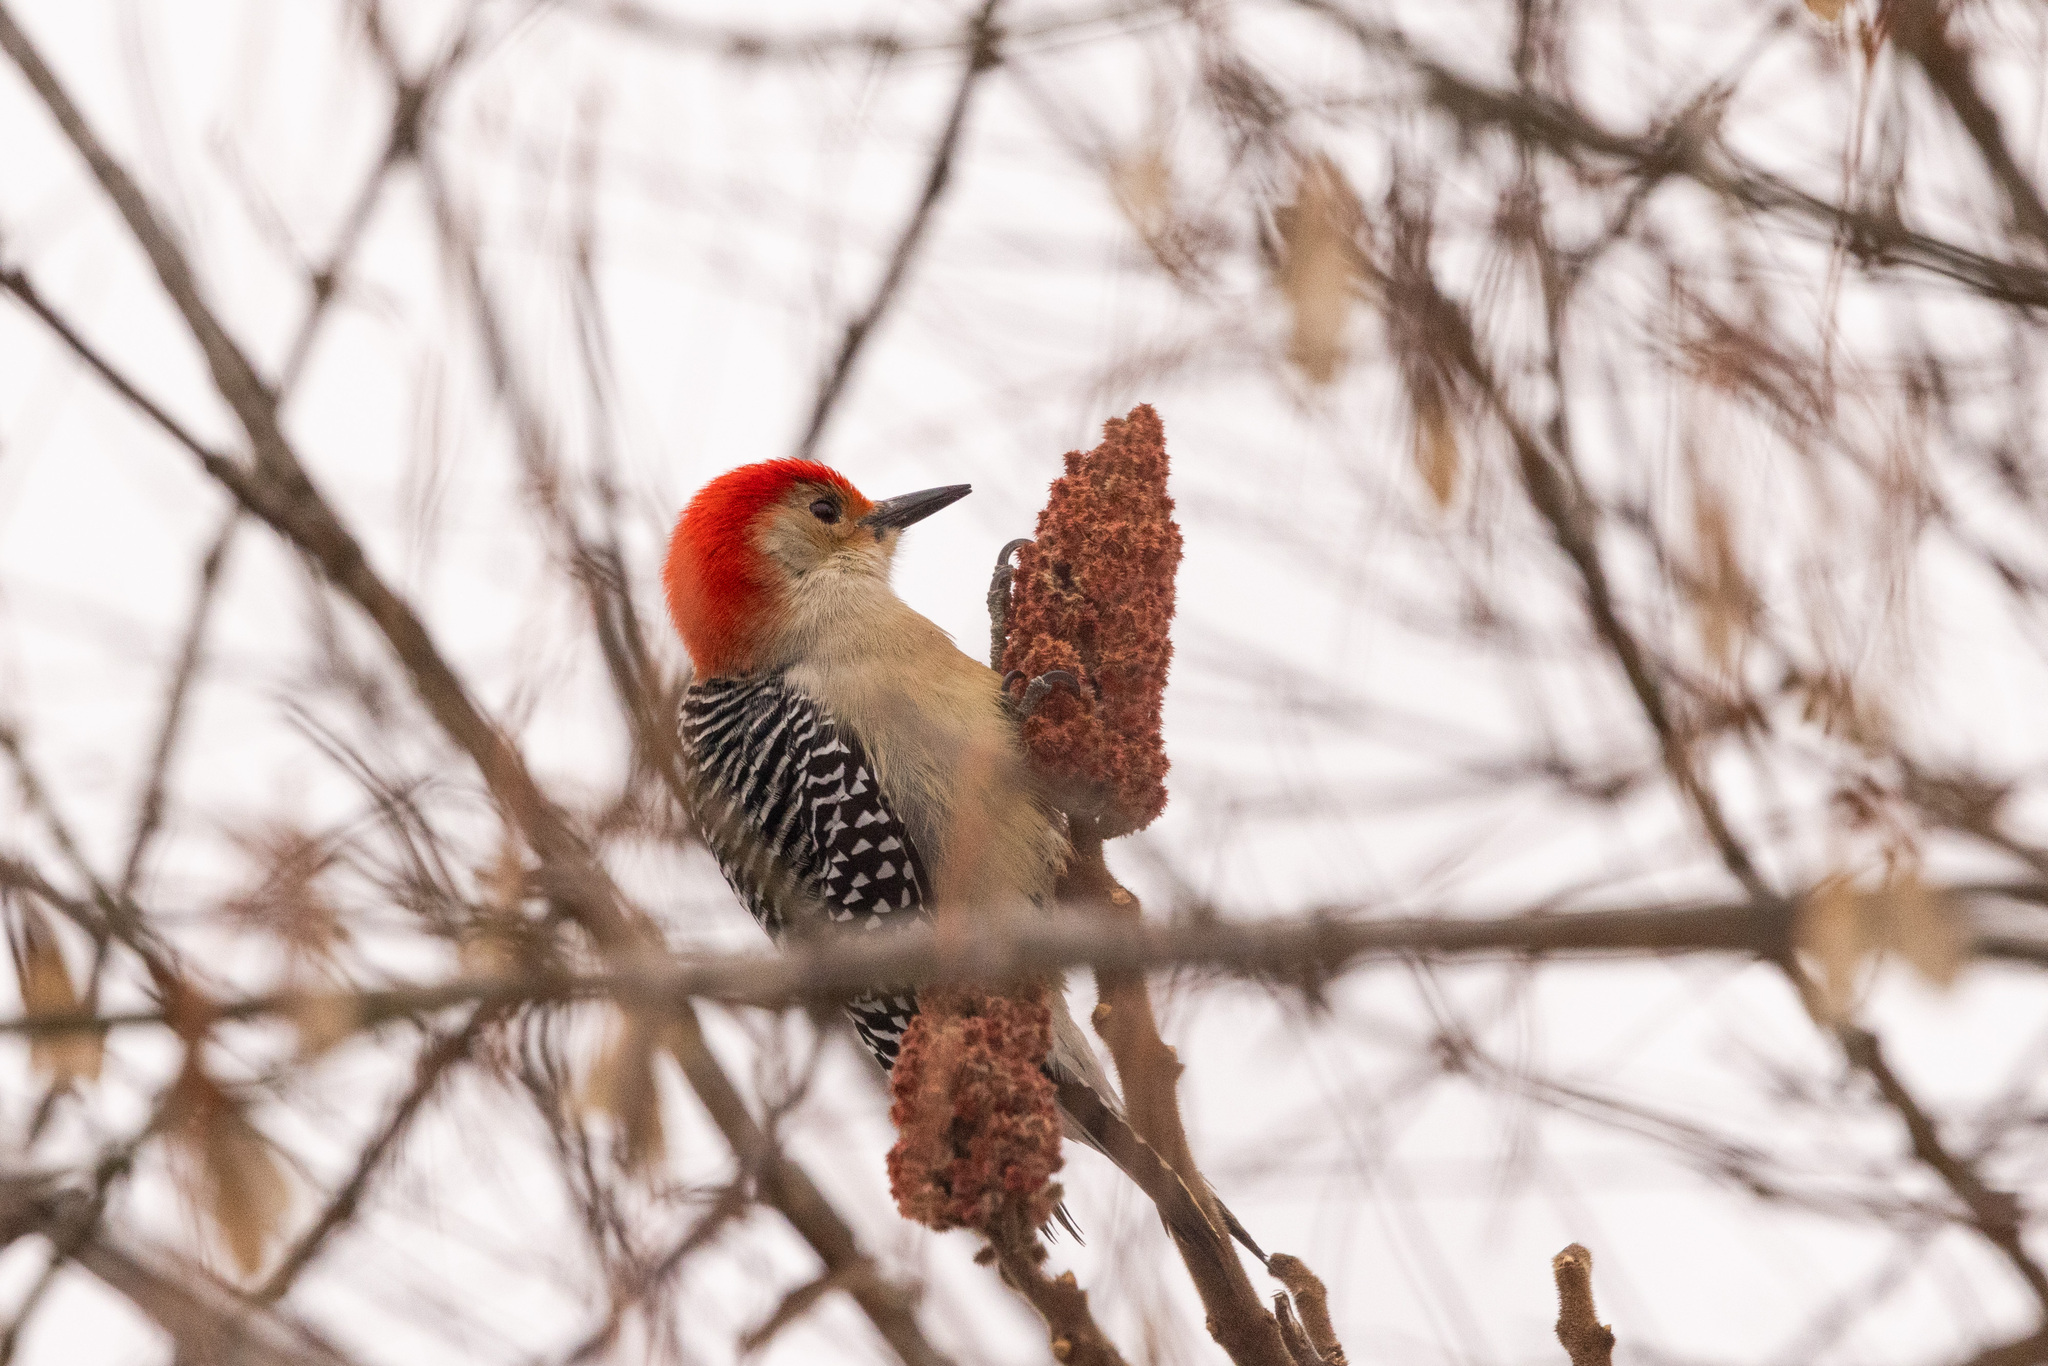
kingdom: Animalia
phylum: Chordata
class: Aves
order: Piciformes
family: Picidae
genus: Melanerpes
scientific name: Melanerpes carolinus
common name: Red-bellied woodpecker
